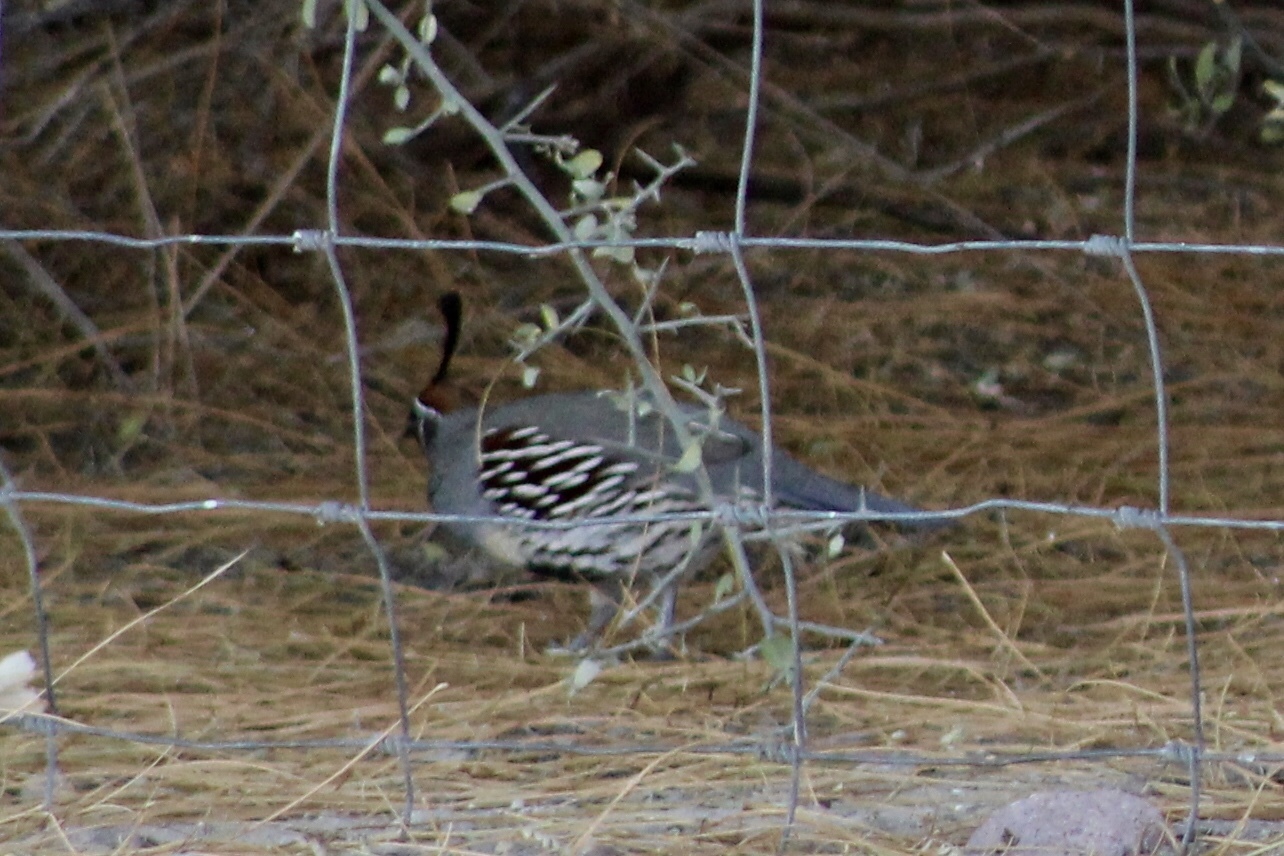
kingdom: Animalia
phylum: Chordata
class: Aves
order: Galliformes
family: Odontophoridae
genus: Callipepla
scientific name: Callipepla gambelii
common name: Gambel's quail
